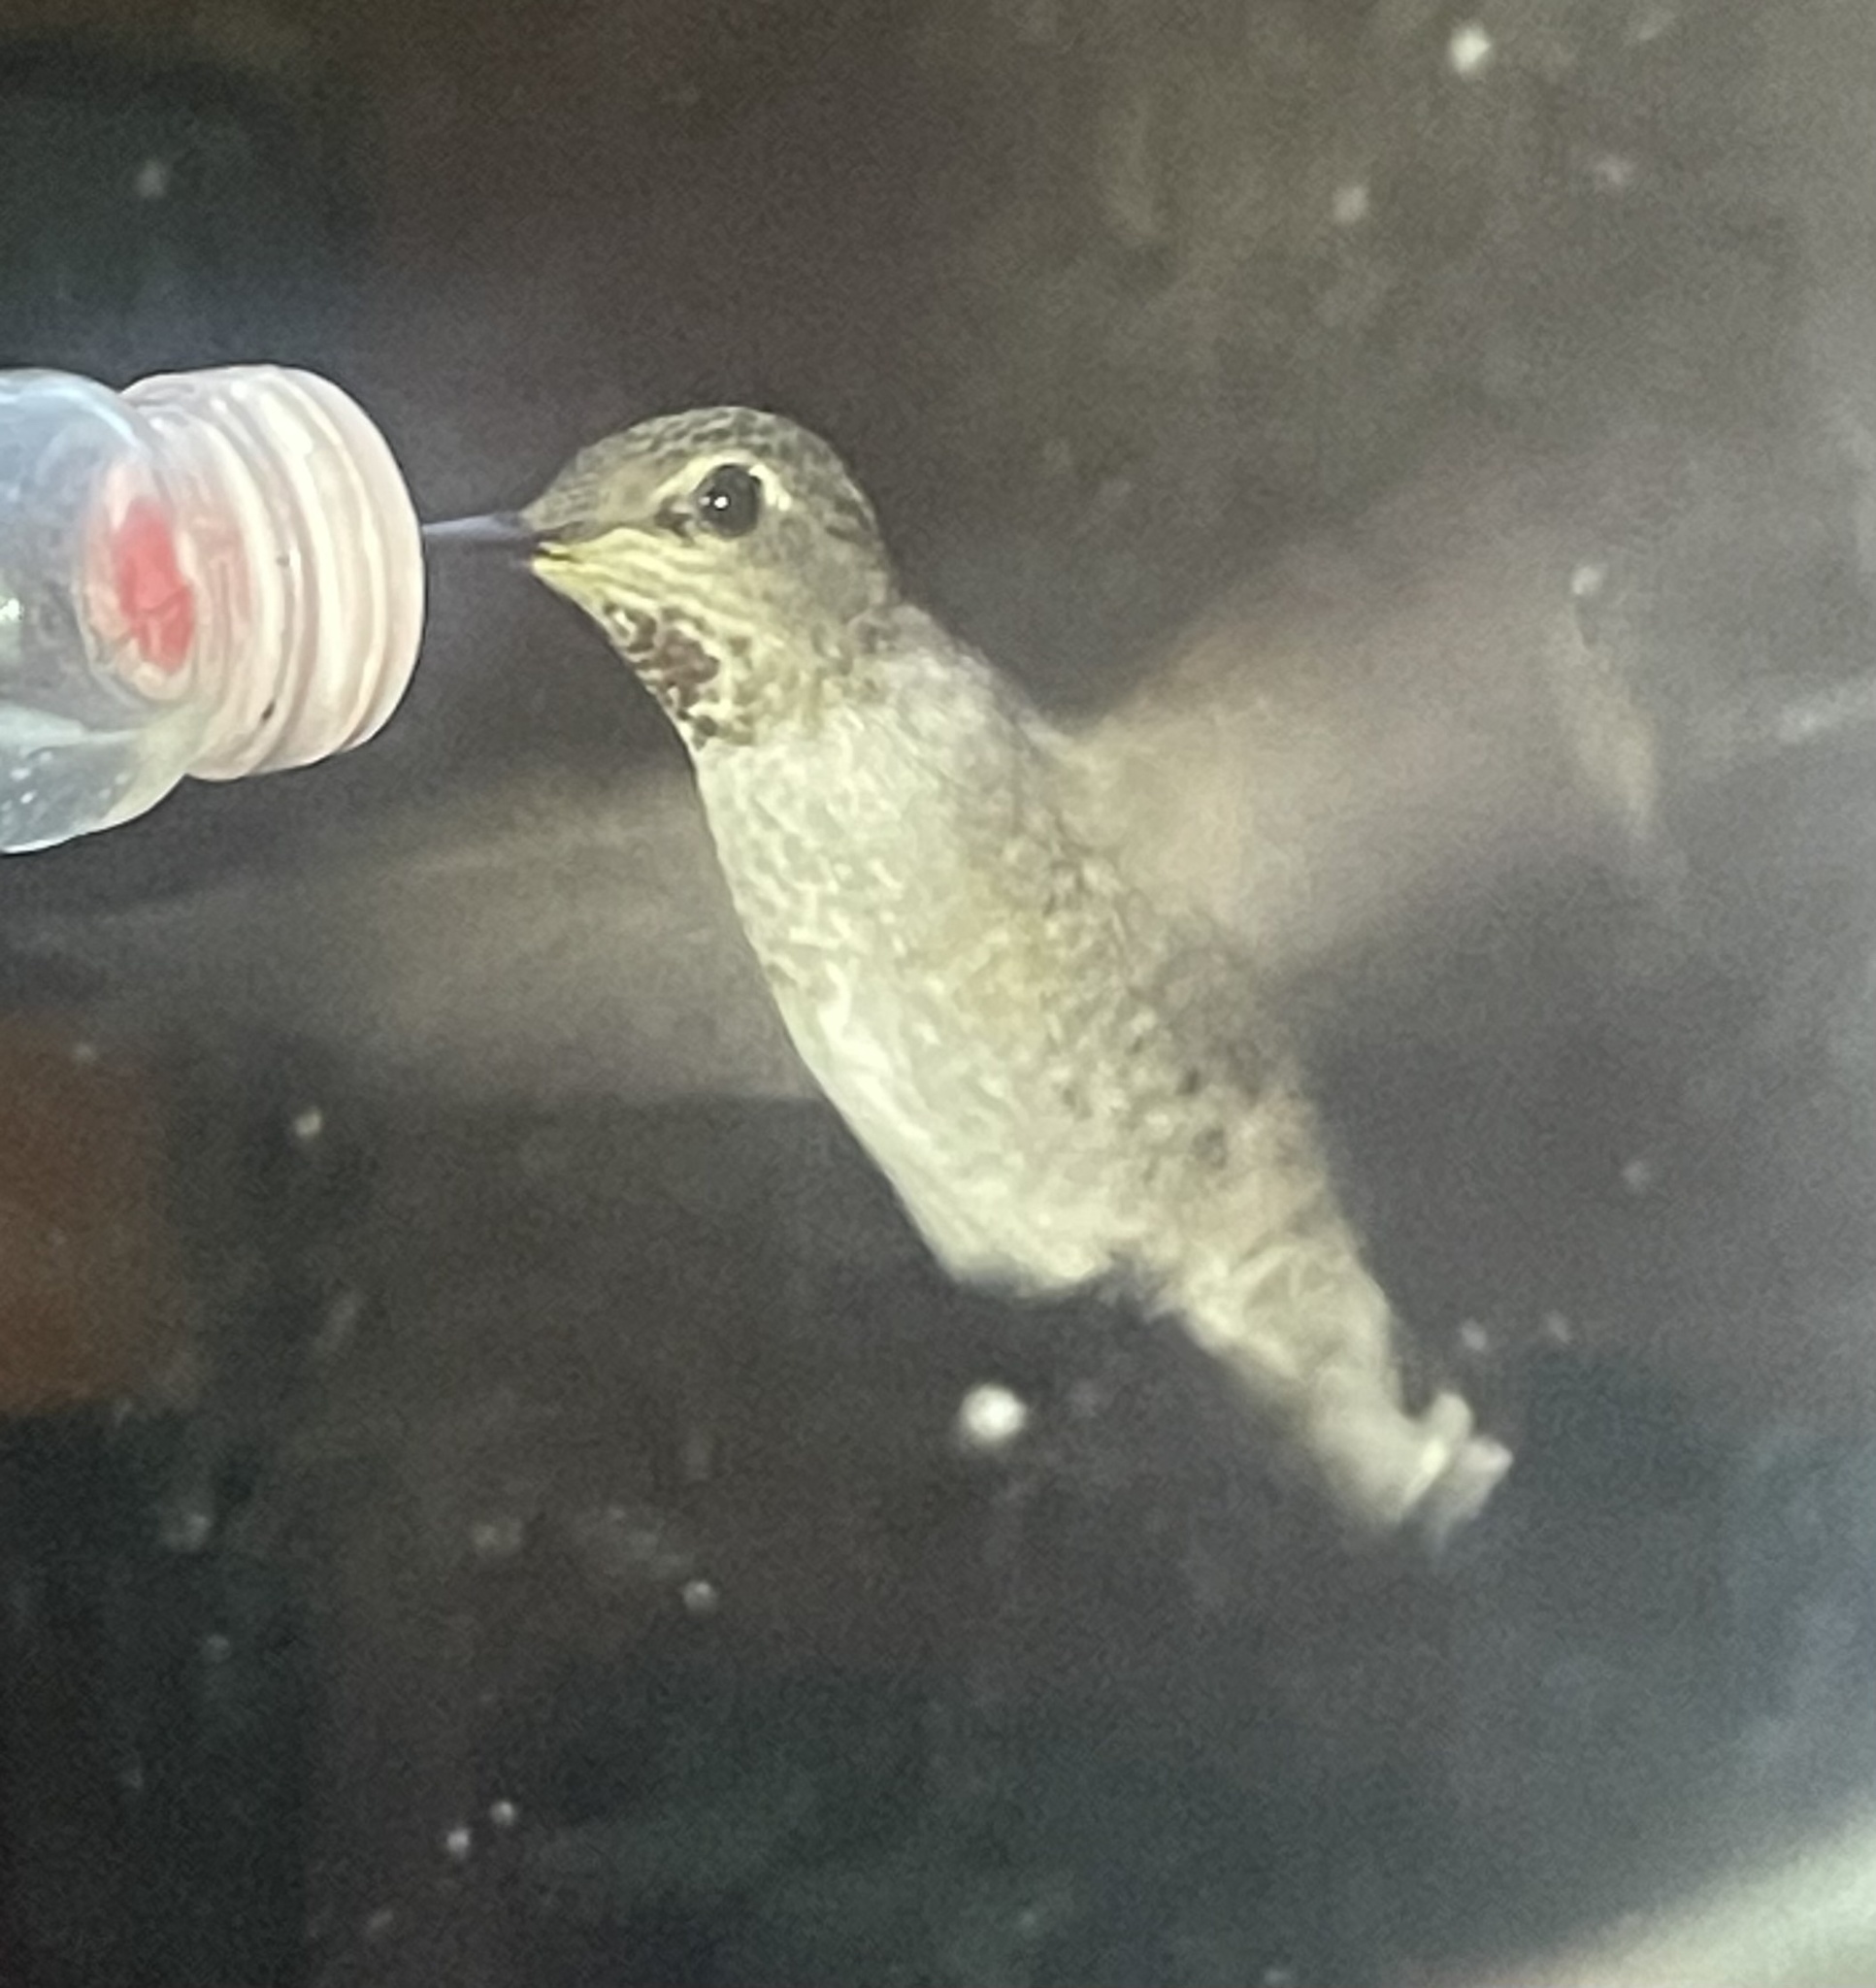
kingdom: Animalia
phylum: Chordata
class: Aves
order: Apodiformes
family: Trochilidae
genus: Calypte
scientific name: Calypte anna
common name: Anna's hummingbird
